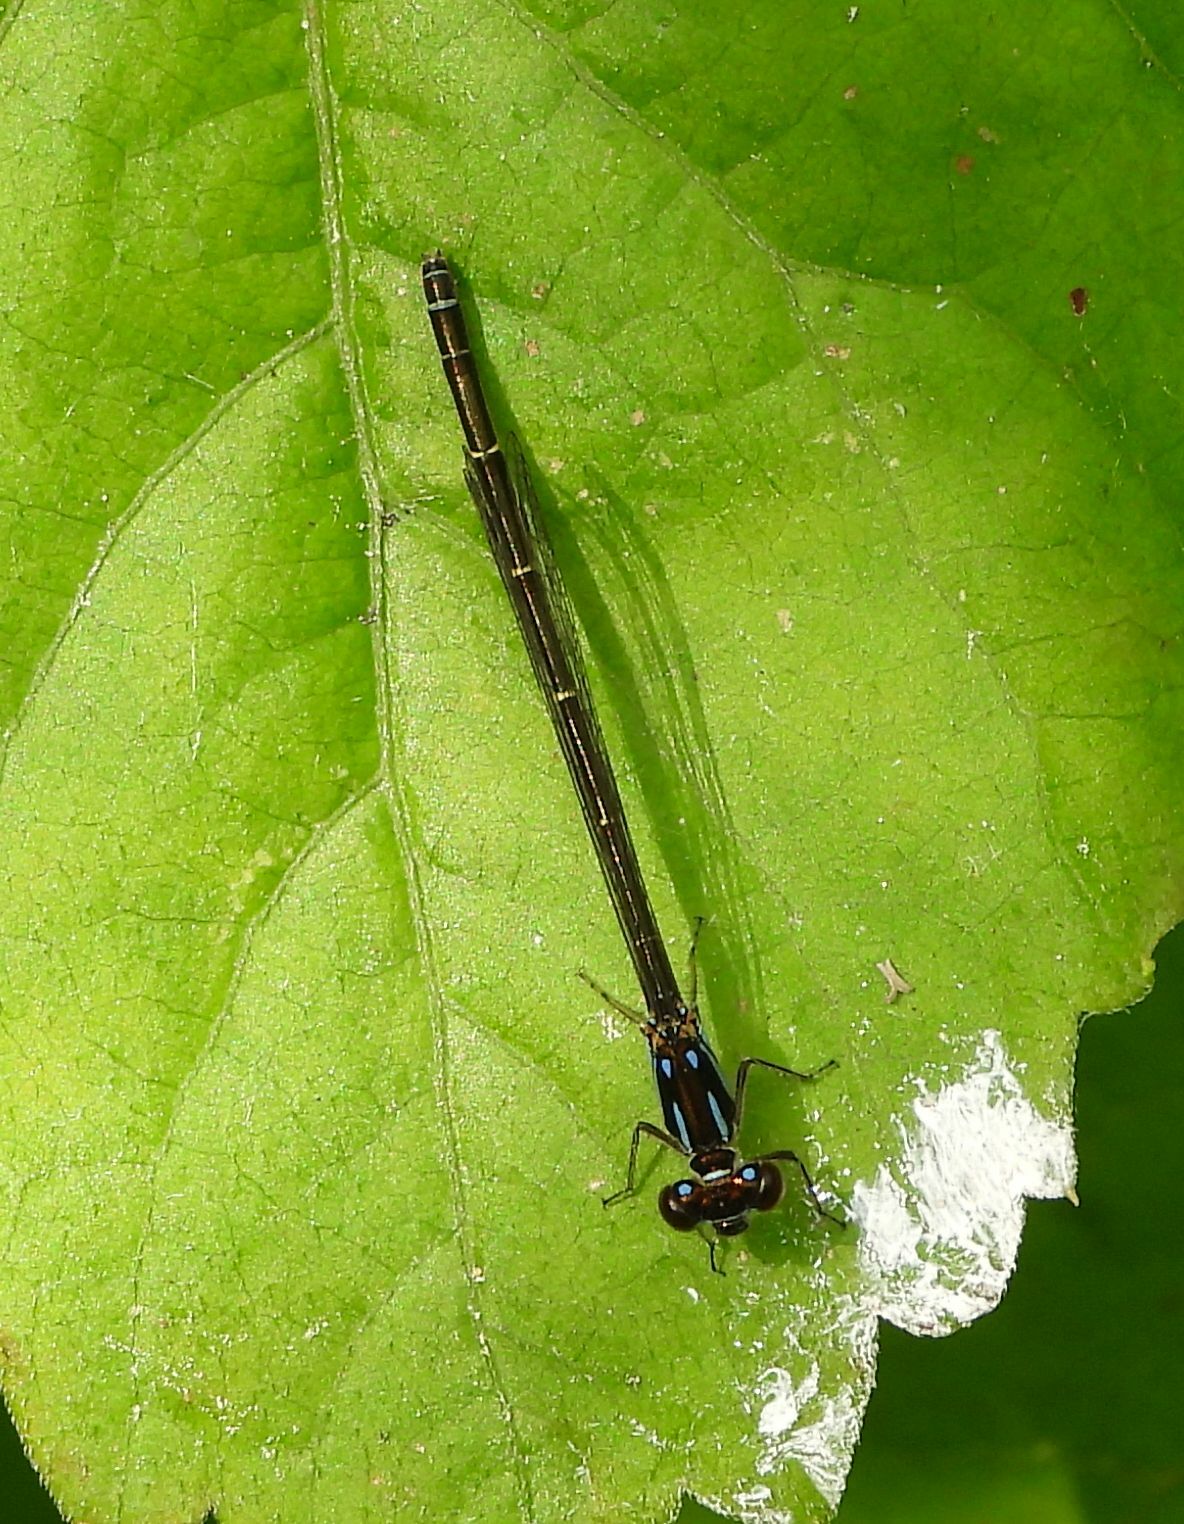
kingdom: Animalia
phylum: Arthropoda
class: Insecta
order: Odonata
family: Coenagrionidae
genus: Ischnura
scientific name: Ischnura posita
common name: Fragile forktail
